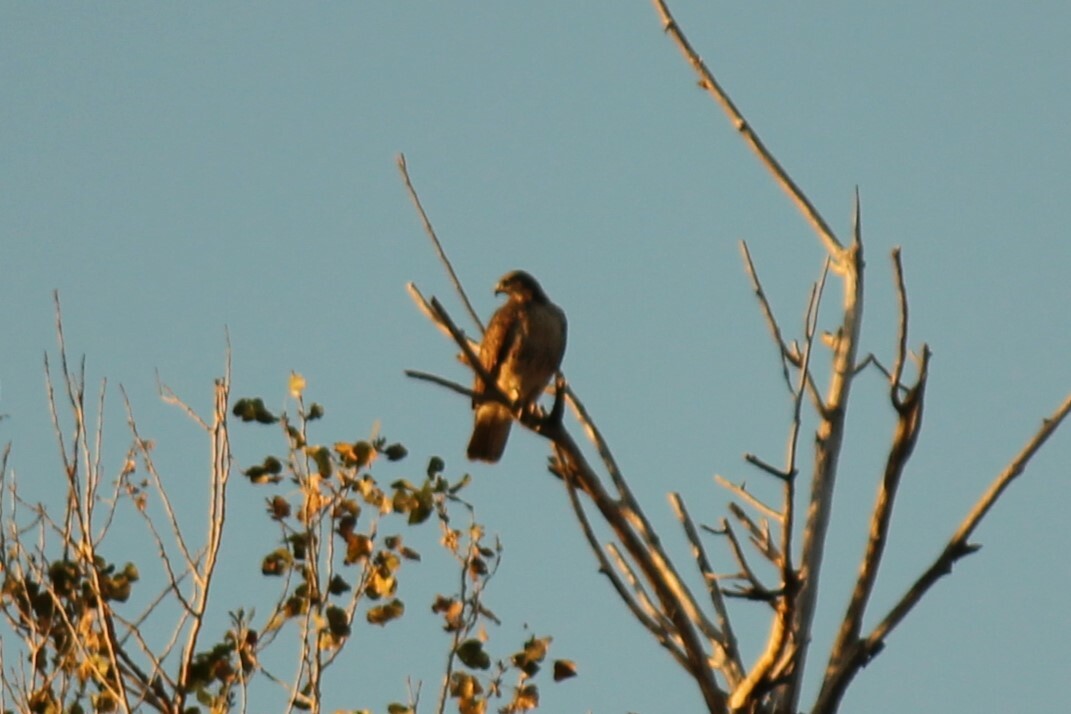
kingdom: Animalia
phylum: Chordata
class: Aves
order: Accipitriformes
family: Accipitridae
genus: Buteo
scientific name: Buteo jamaicensis
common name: Red-tailed hawk
